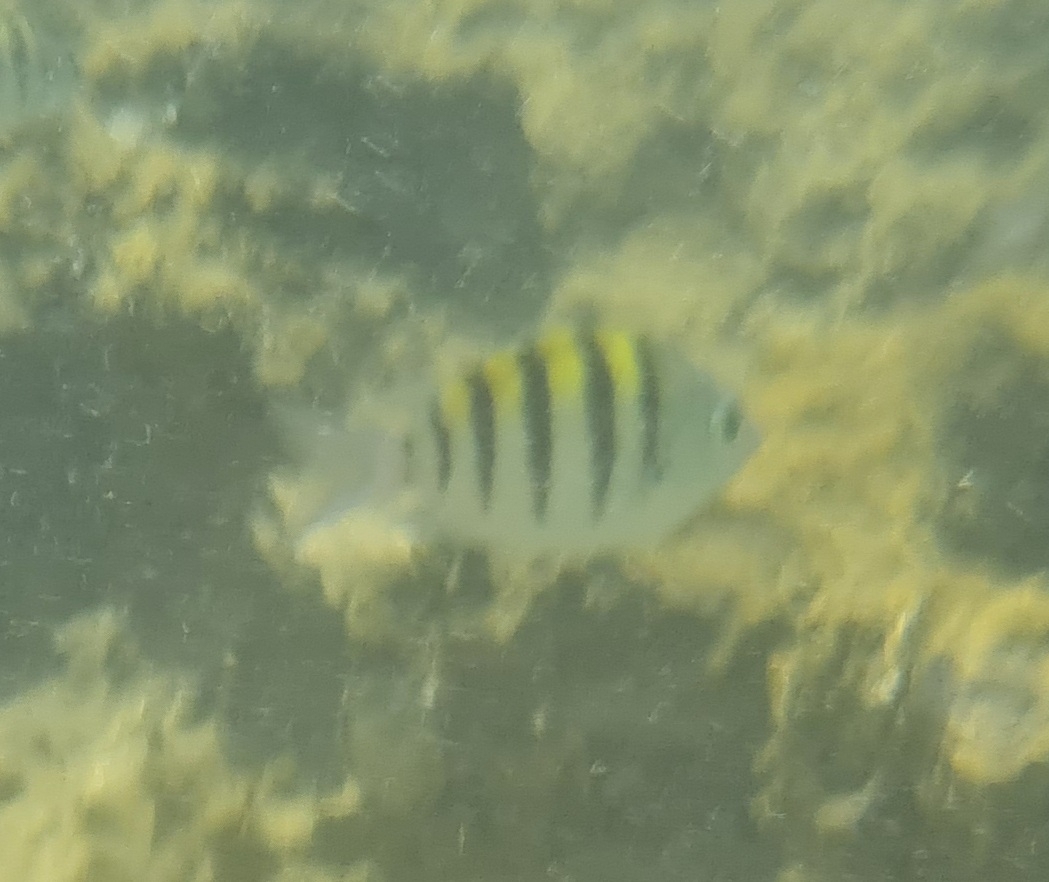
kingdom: Animalia
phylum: Chordata
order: Perciformes
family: Pomacentridae
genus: Abudefduf
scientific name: Abudefduf saxatilis
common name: Sergeant major
